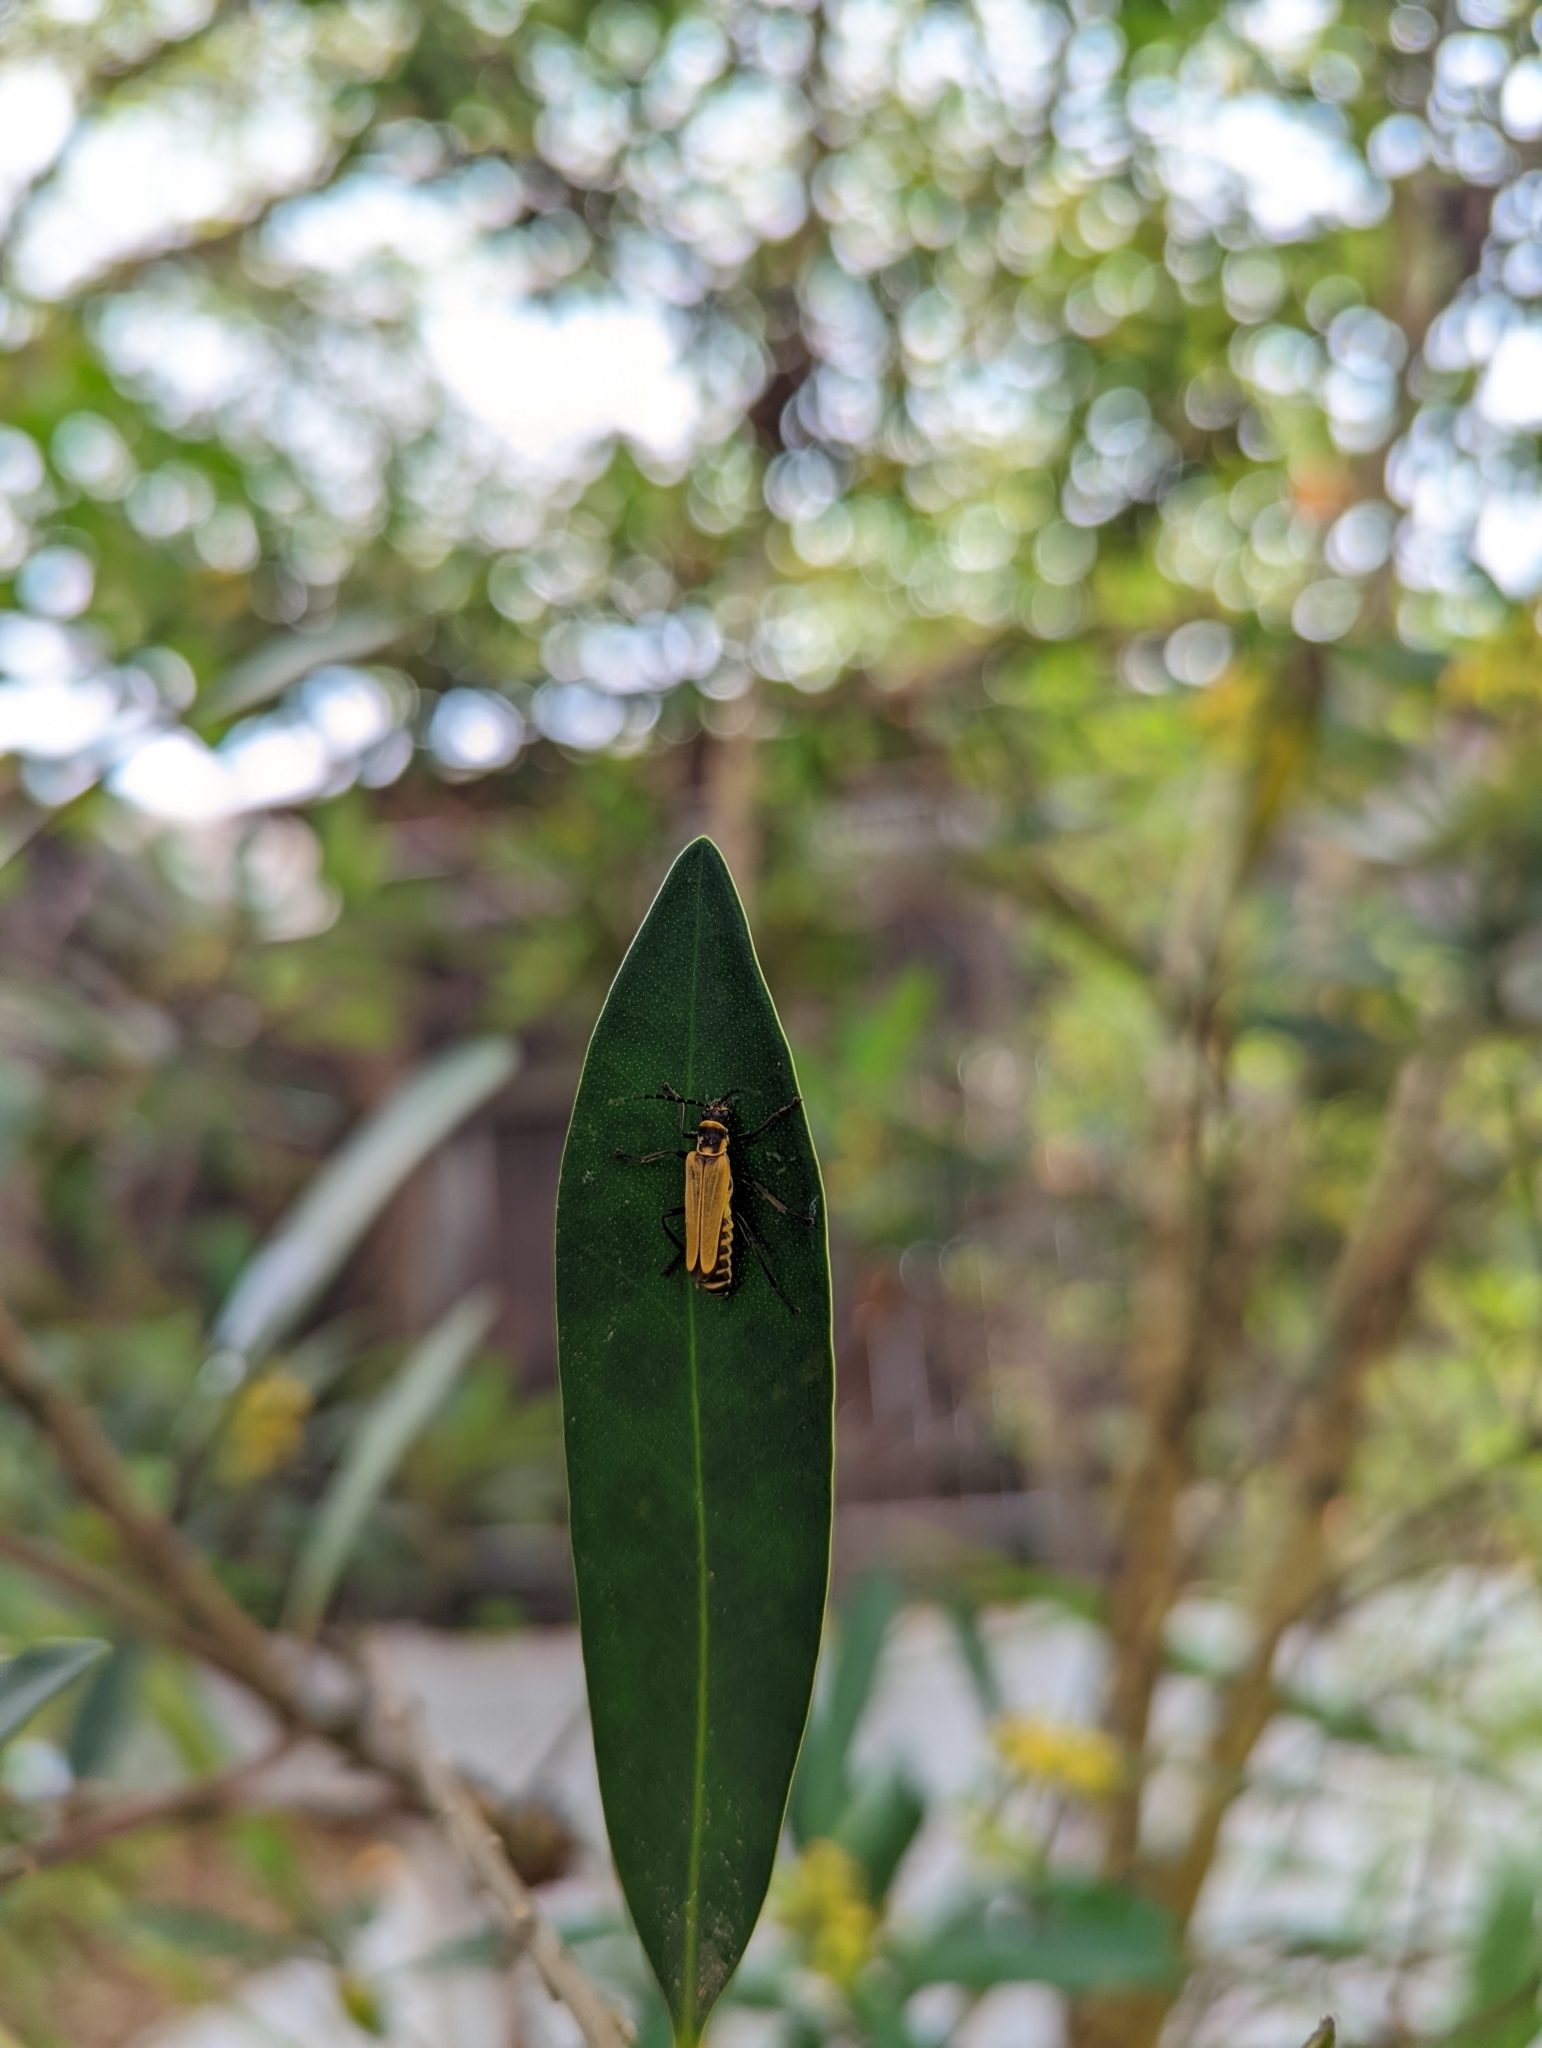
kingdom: Animalia
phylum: Arthropoda
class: Insecta
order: Coleoptera
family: Cantharidae
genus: Chauliognathus
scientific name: Chauliognathus
